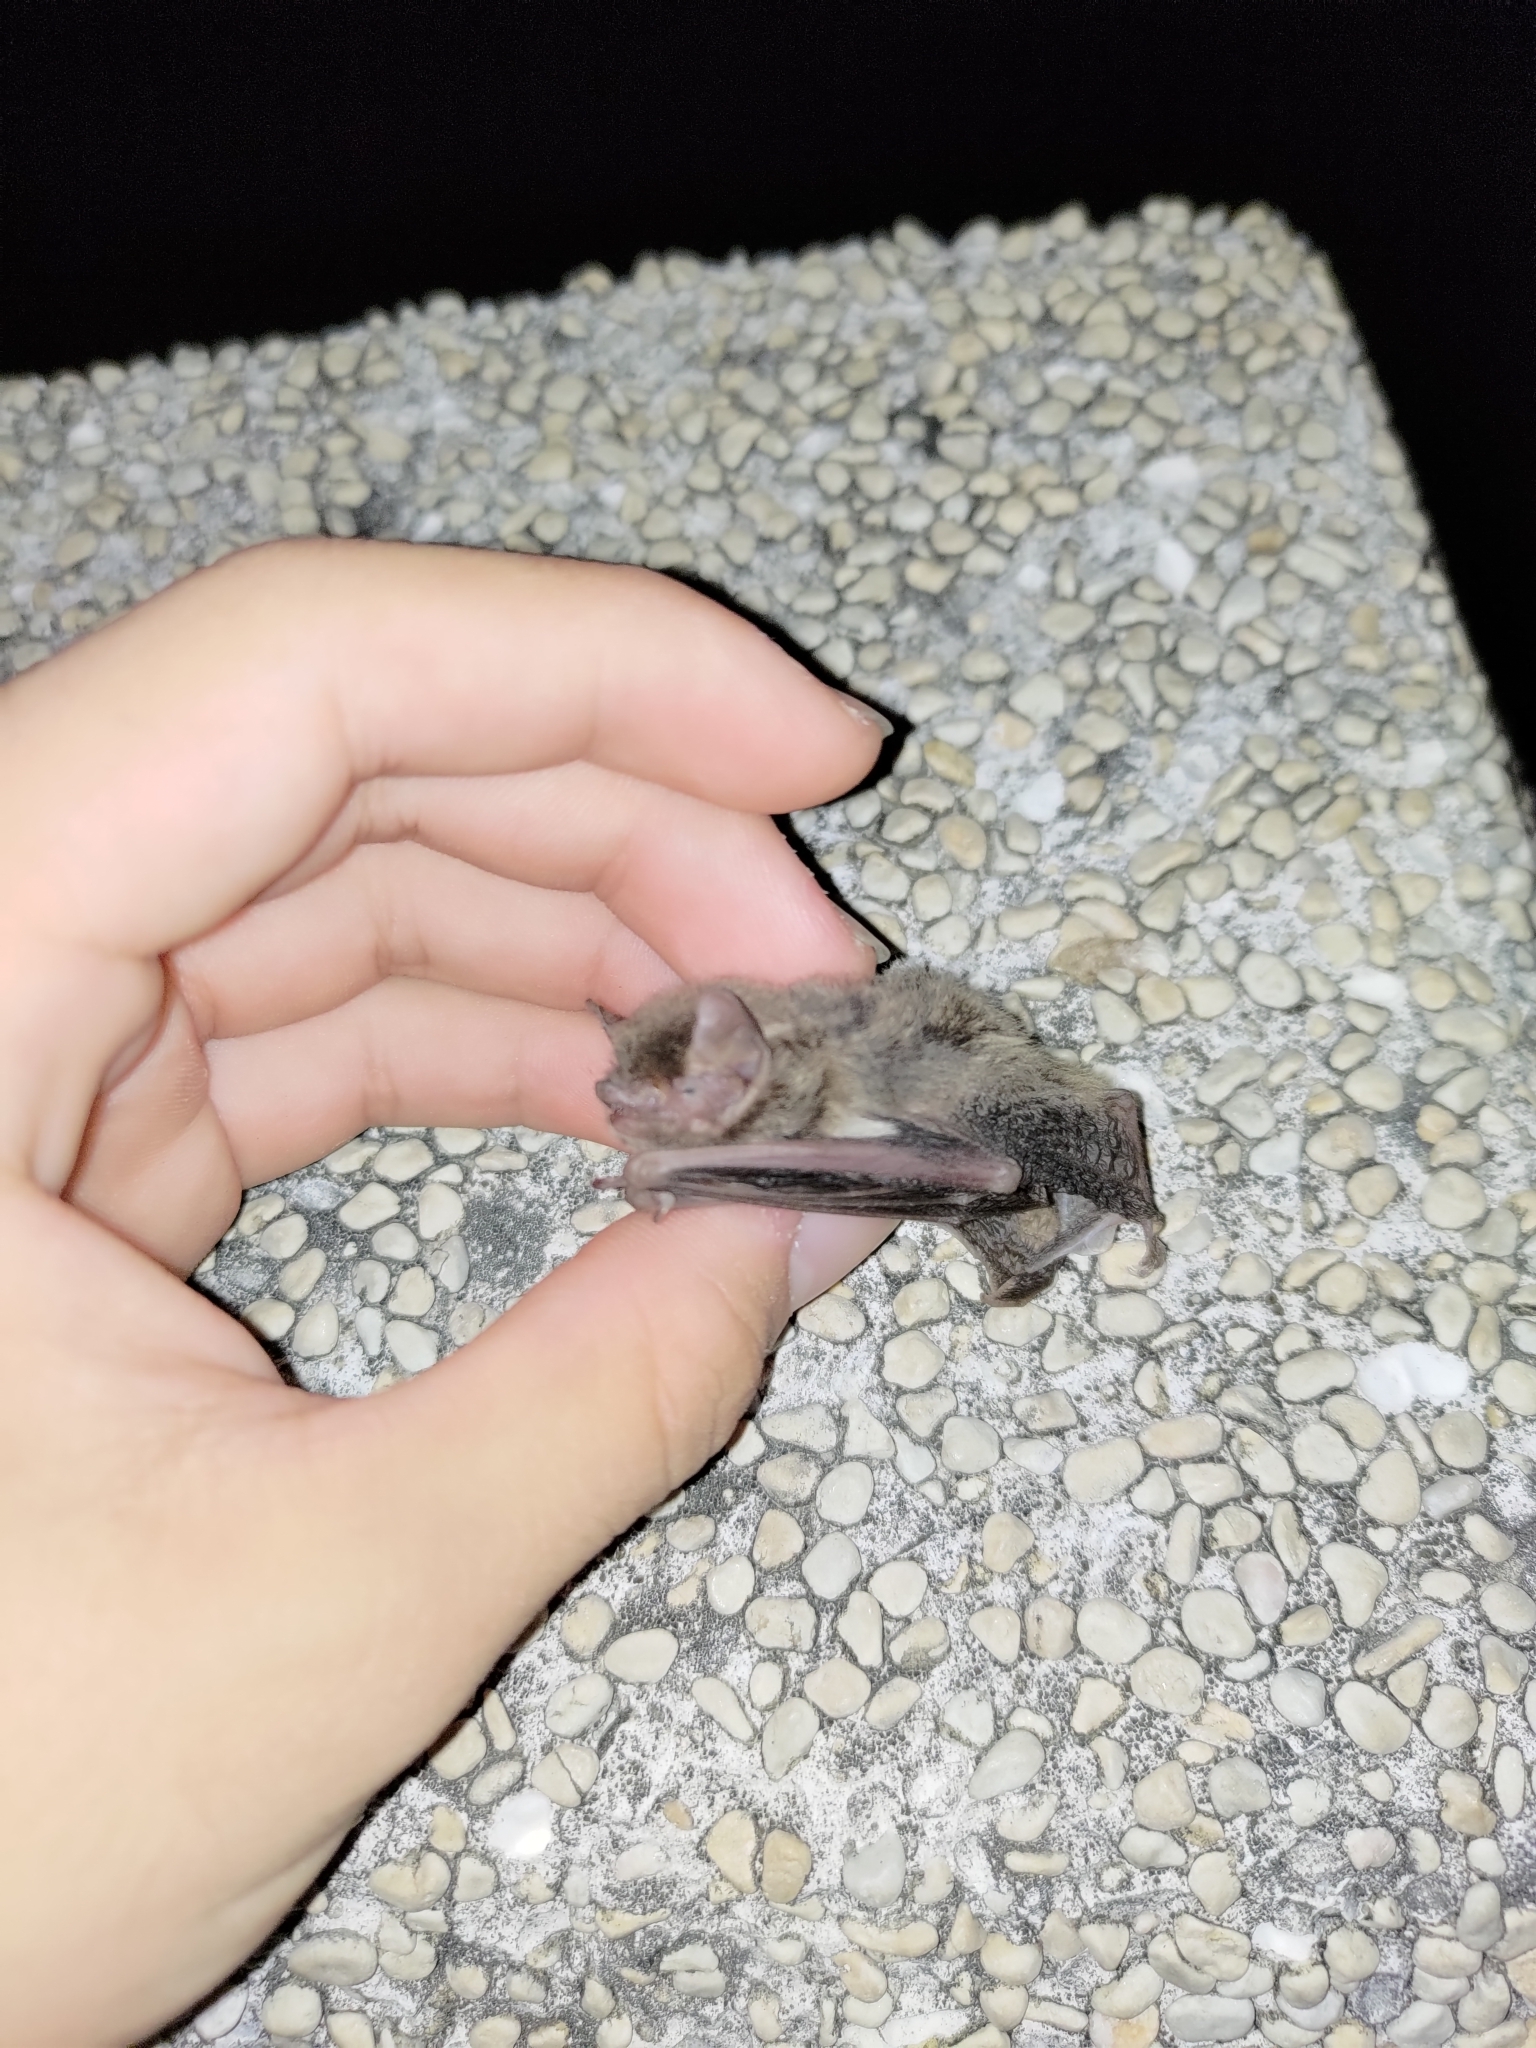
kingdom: Animalia
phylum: Chordata
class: Mammalia
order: Chiroptera
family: Vespertilionidae
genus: Pipistrellus
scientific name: Pipistrellus abramus
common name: Japanese pipistrelle
